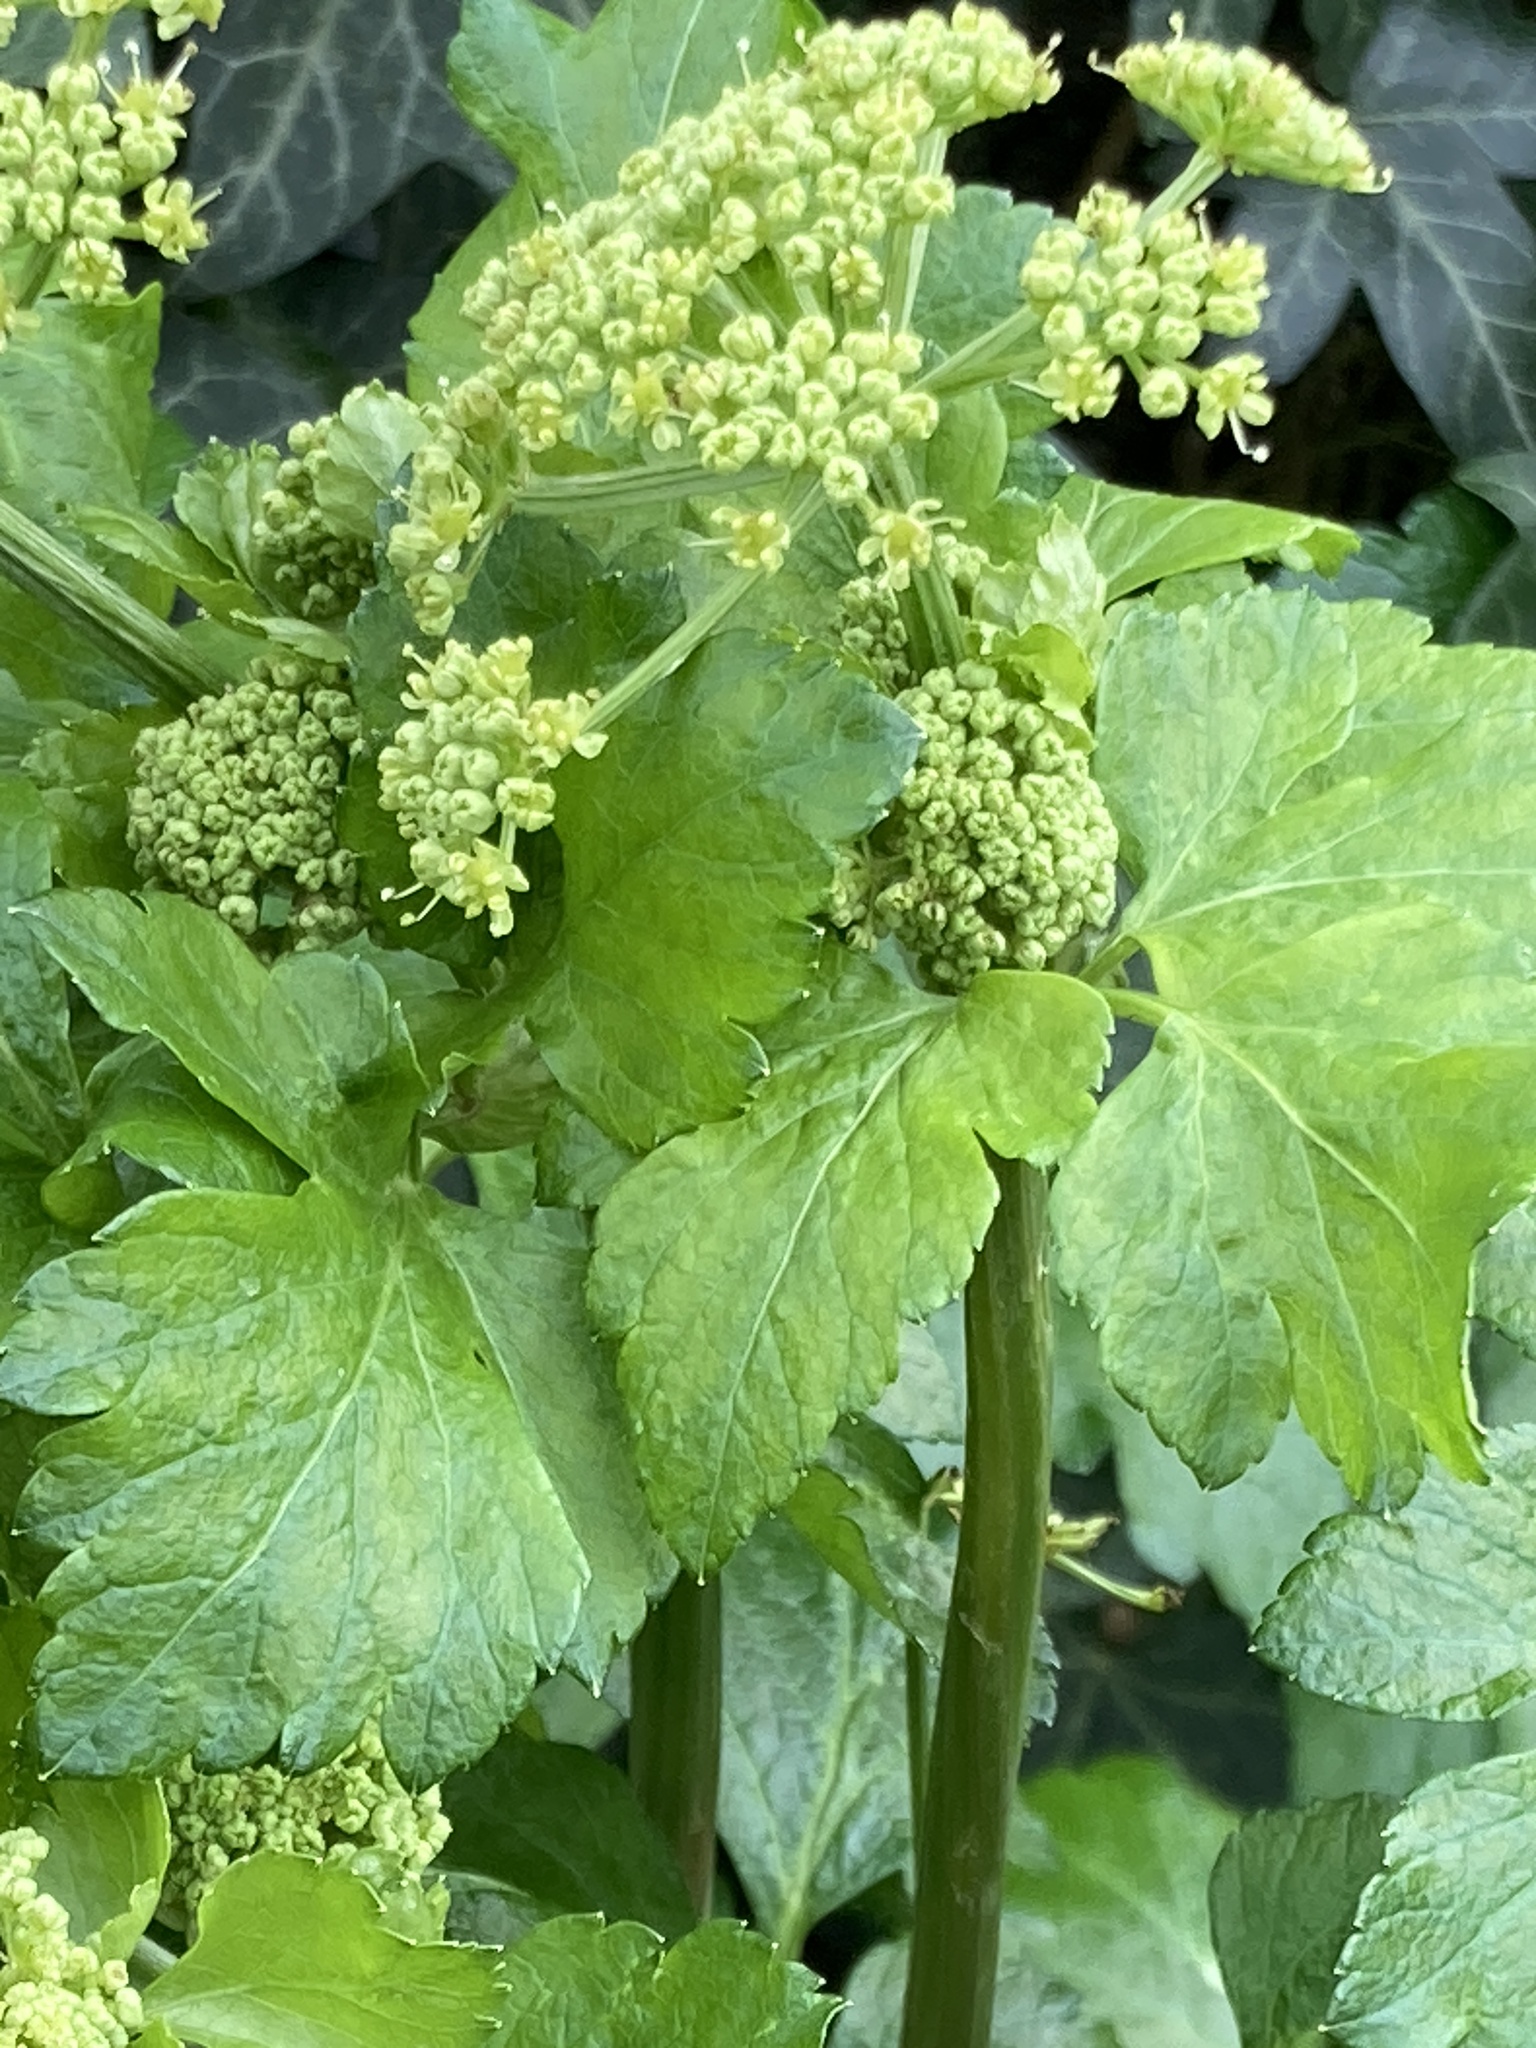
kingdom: Plantae
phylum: Tracheophyta
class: Magnoliopsida
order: Apiales
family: Apiaceae
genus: Smyrnium
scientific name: Smyrnium olusatrum
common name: Alexanders
